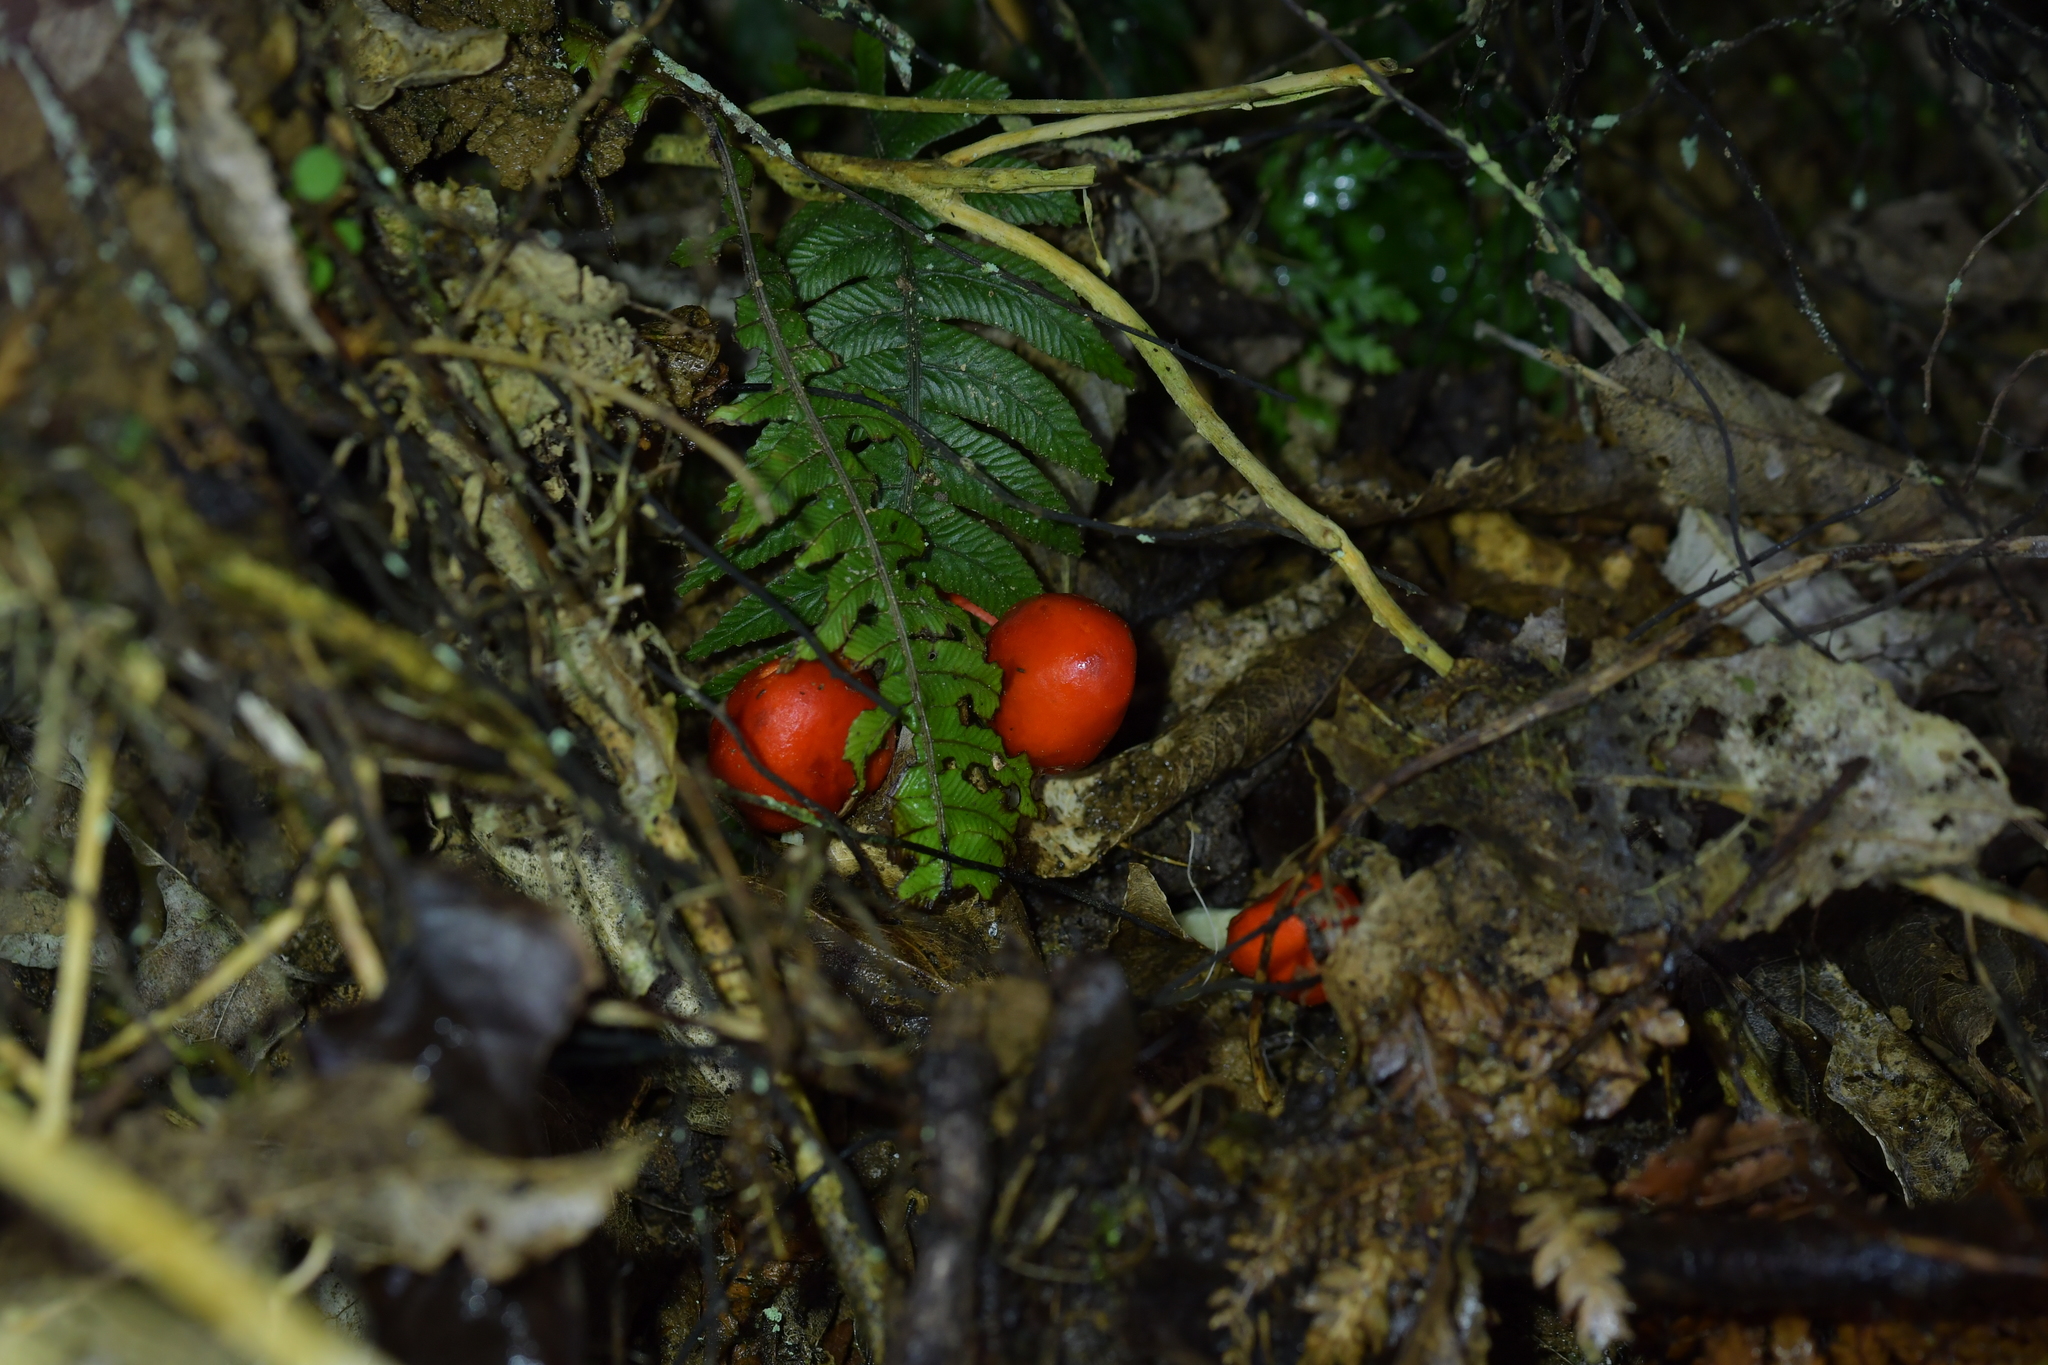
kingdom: Fungi
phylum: Basidiomycota
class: Agaricomycetes
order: Agaricales
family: Strophariaceae
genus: Leratiomyces
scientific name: Leratiomyces erythrocephalus
